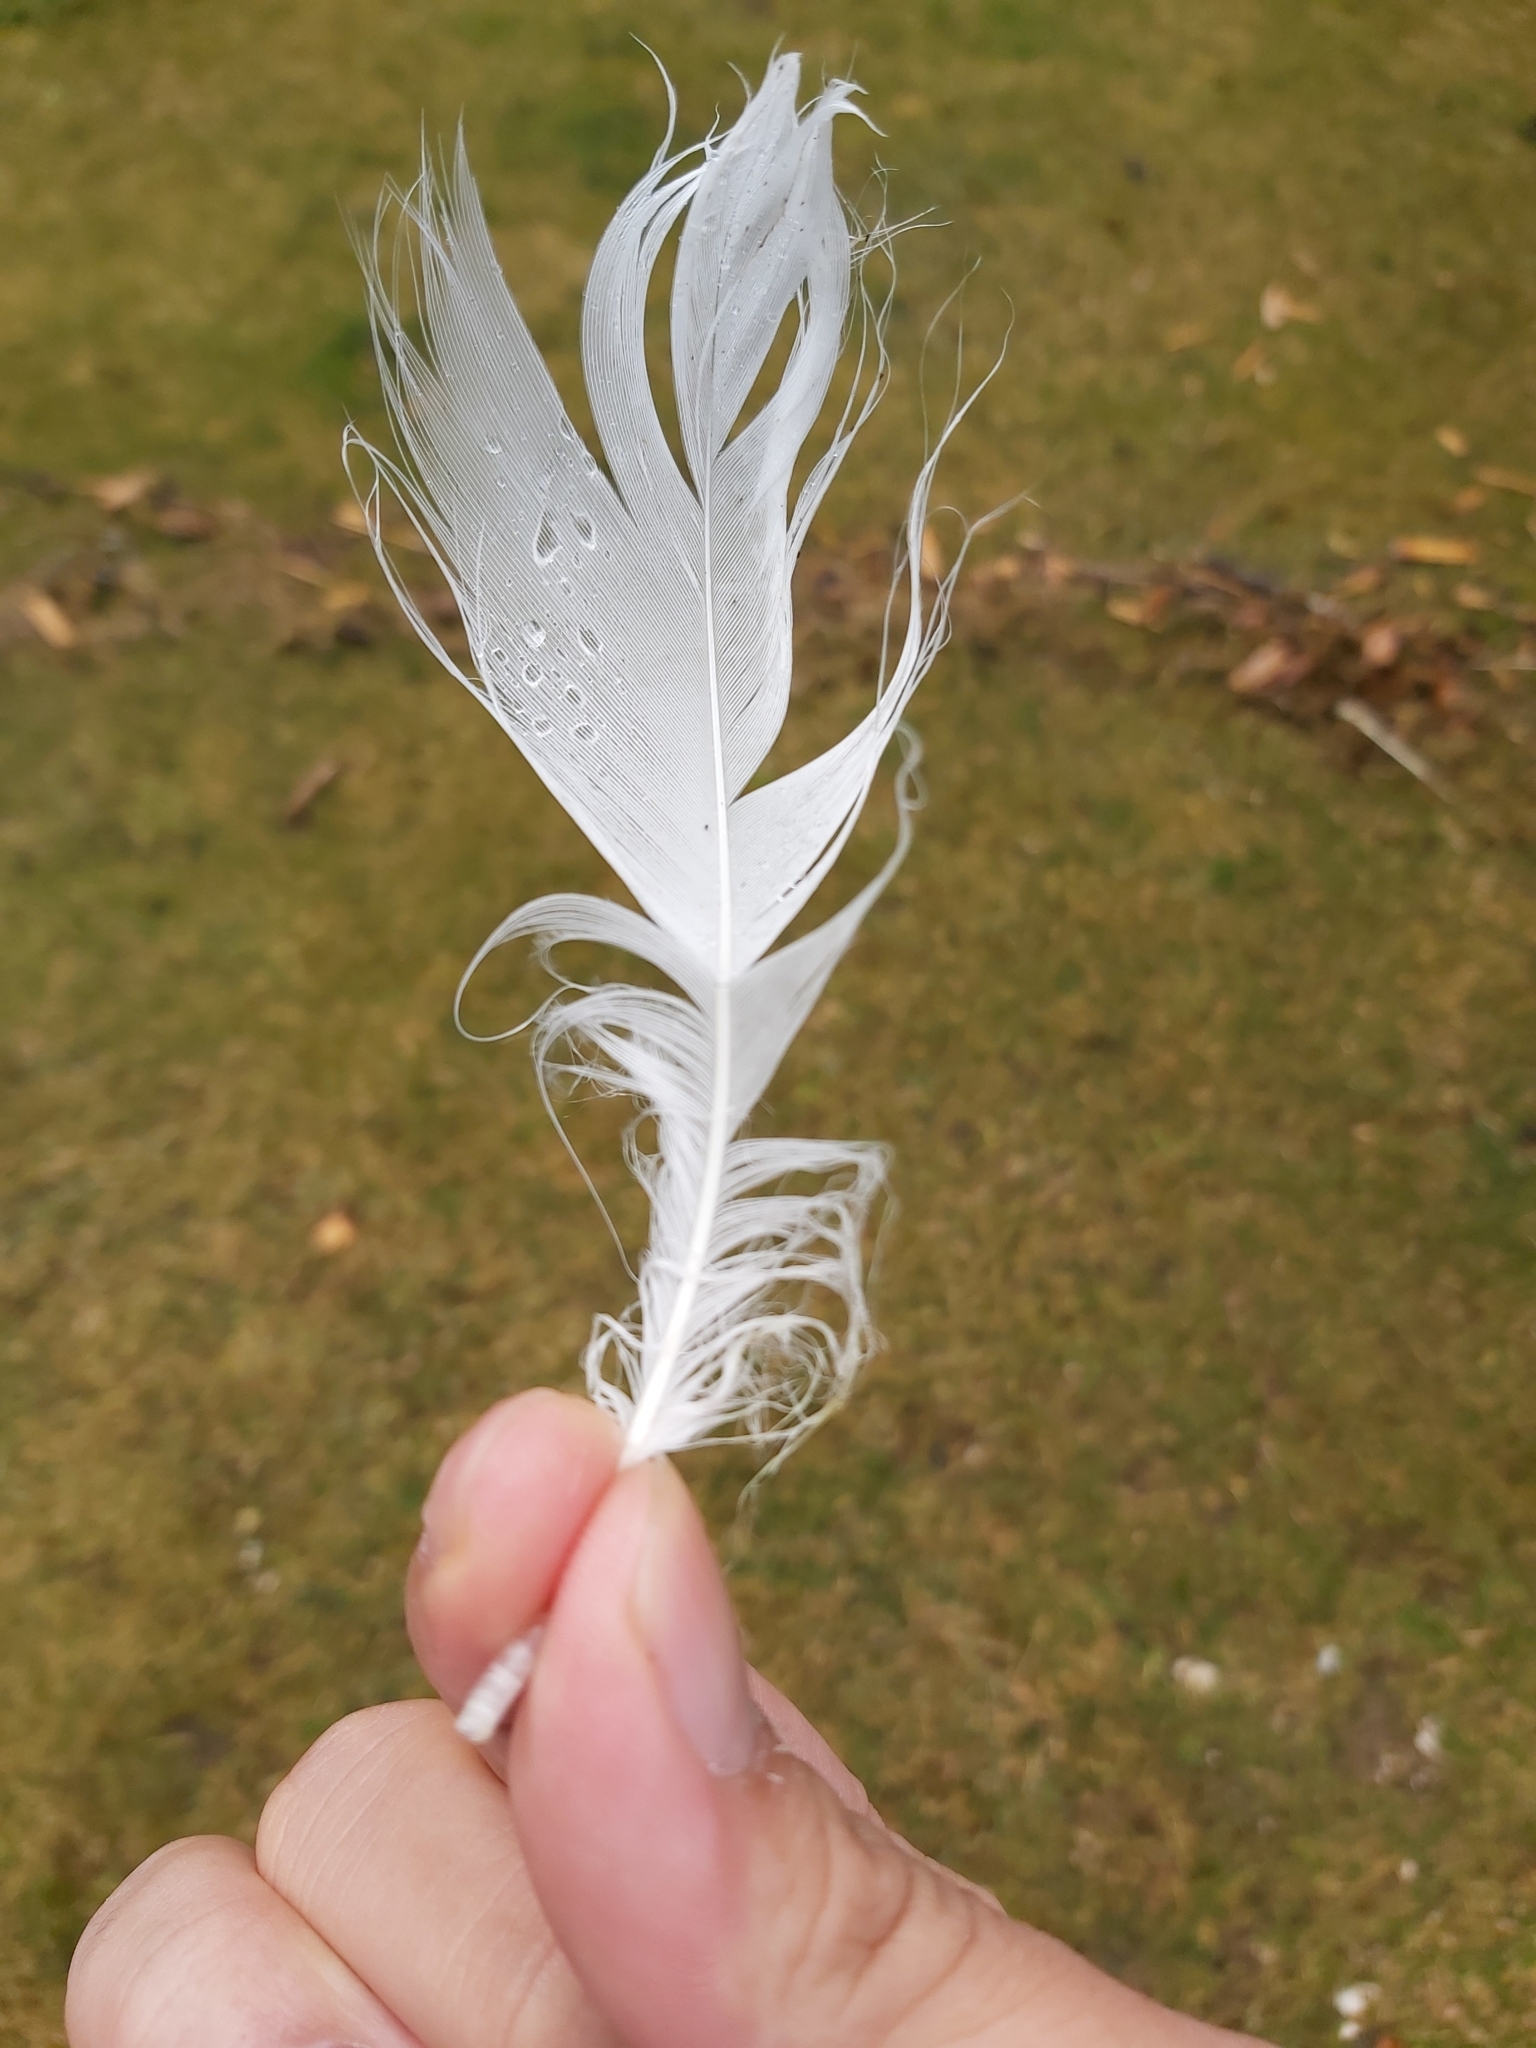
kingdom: Animalia
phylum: Chordata
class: Aves
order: Anseriformes
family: Anatidae
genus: Cygnus
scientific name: Cygnus olor
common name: Mute swan
